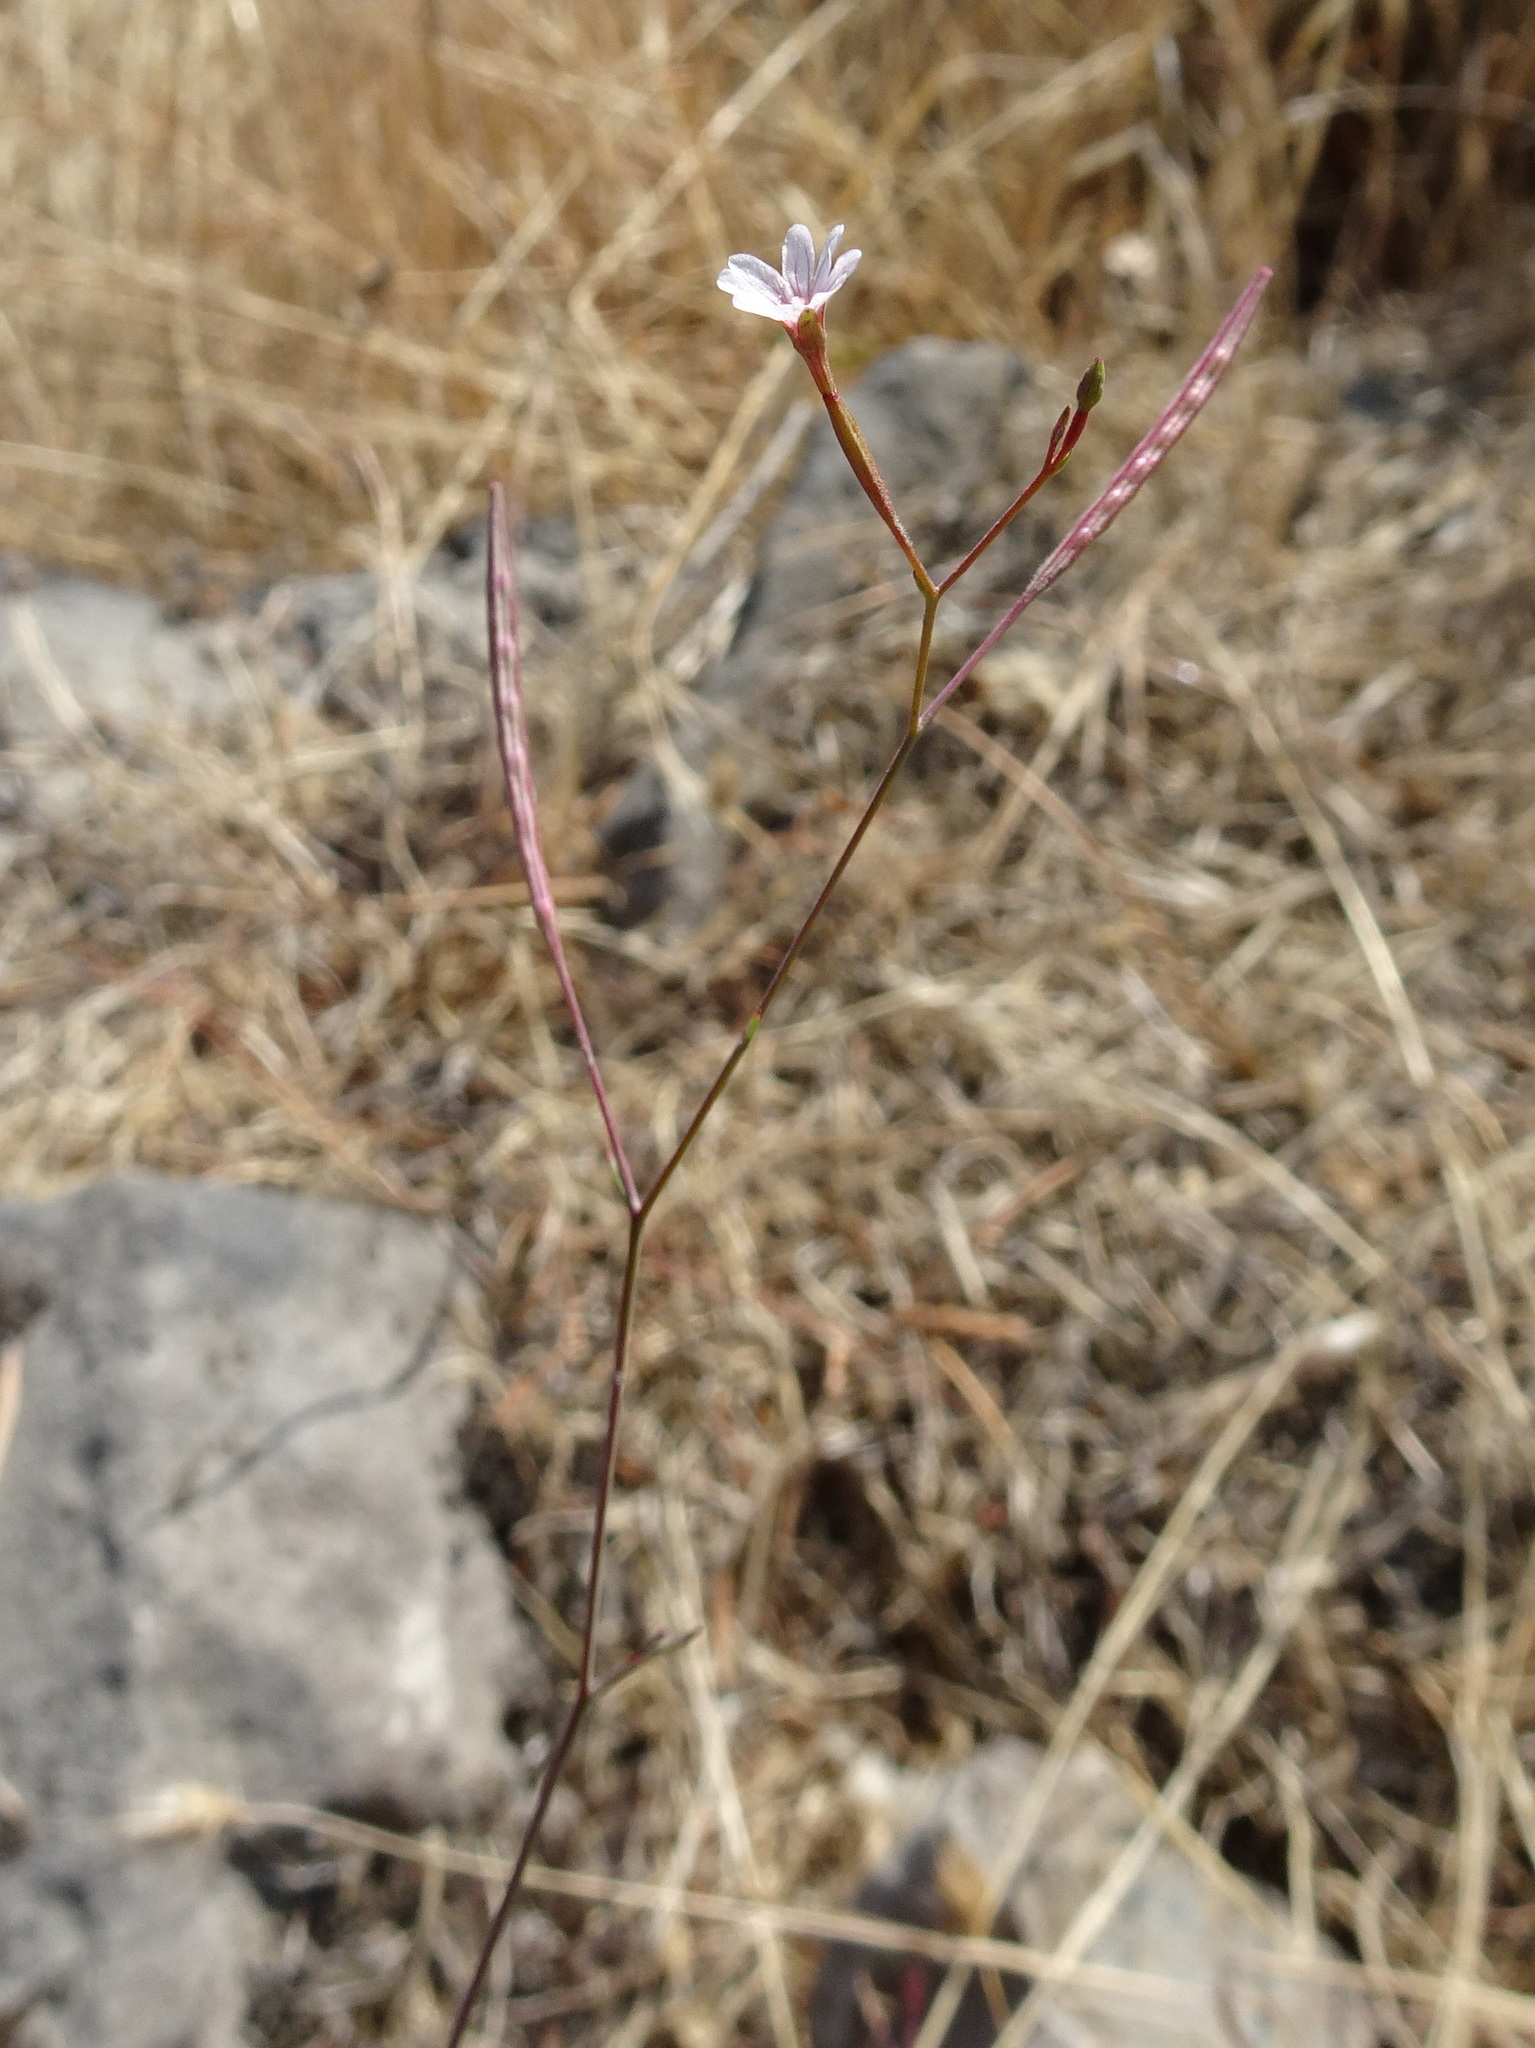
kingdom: Plantae
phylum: Tracheophyta
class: Magnoliopsida
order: Myrtales
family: Onagraceae
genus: Epilobium
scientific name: Epilobium brachycarpum
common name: Annual willowherb
